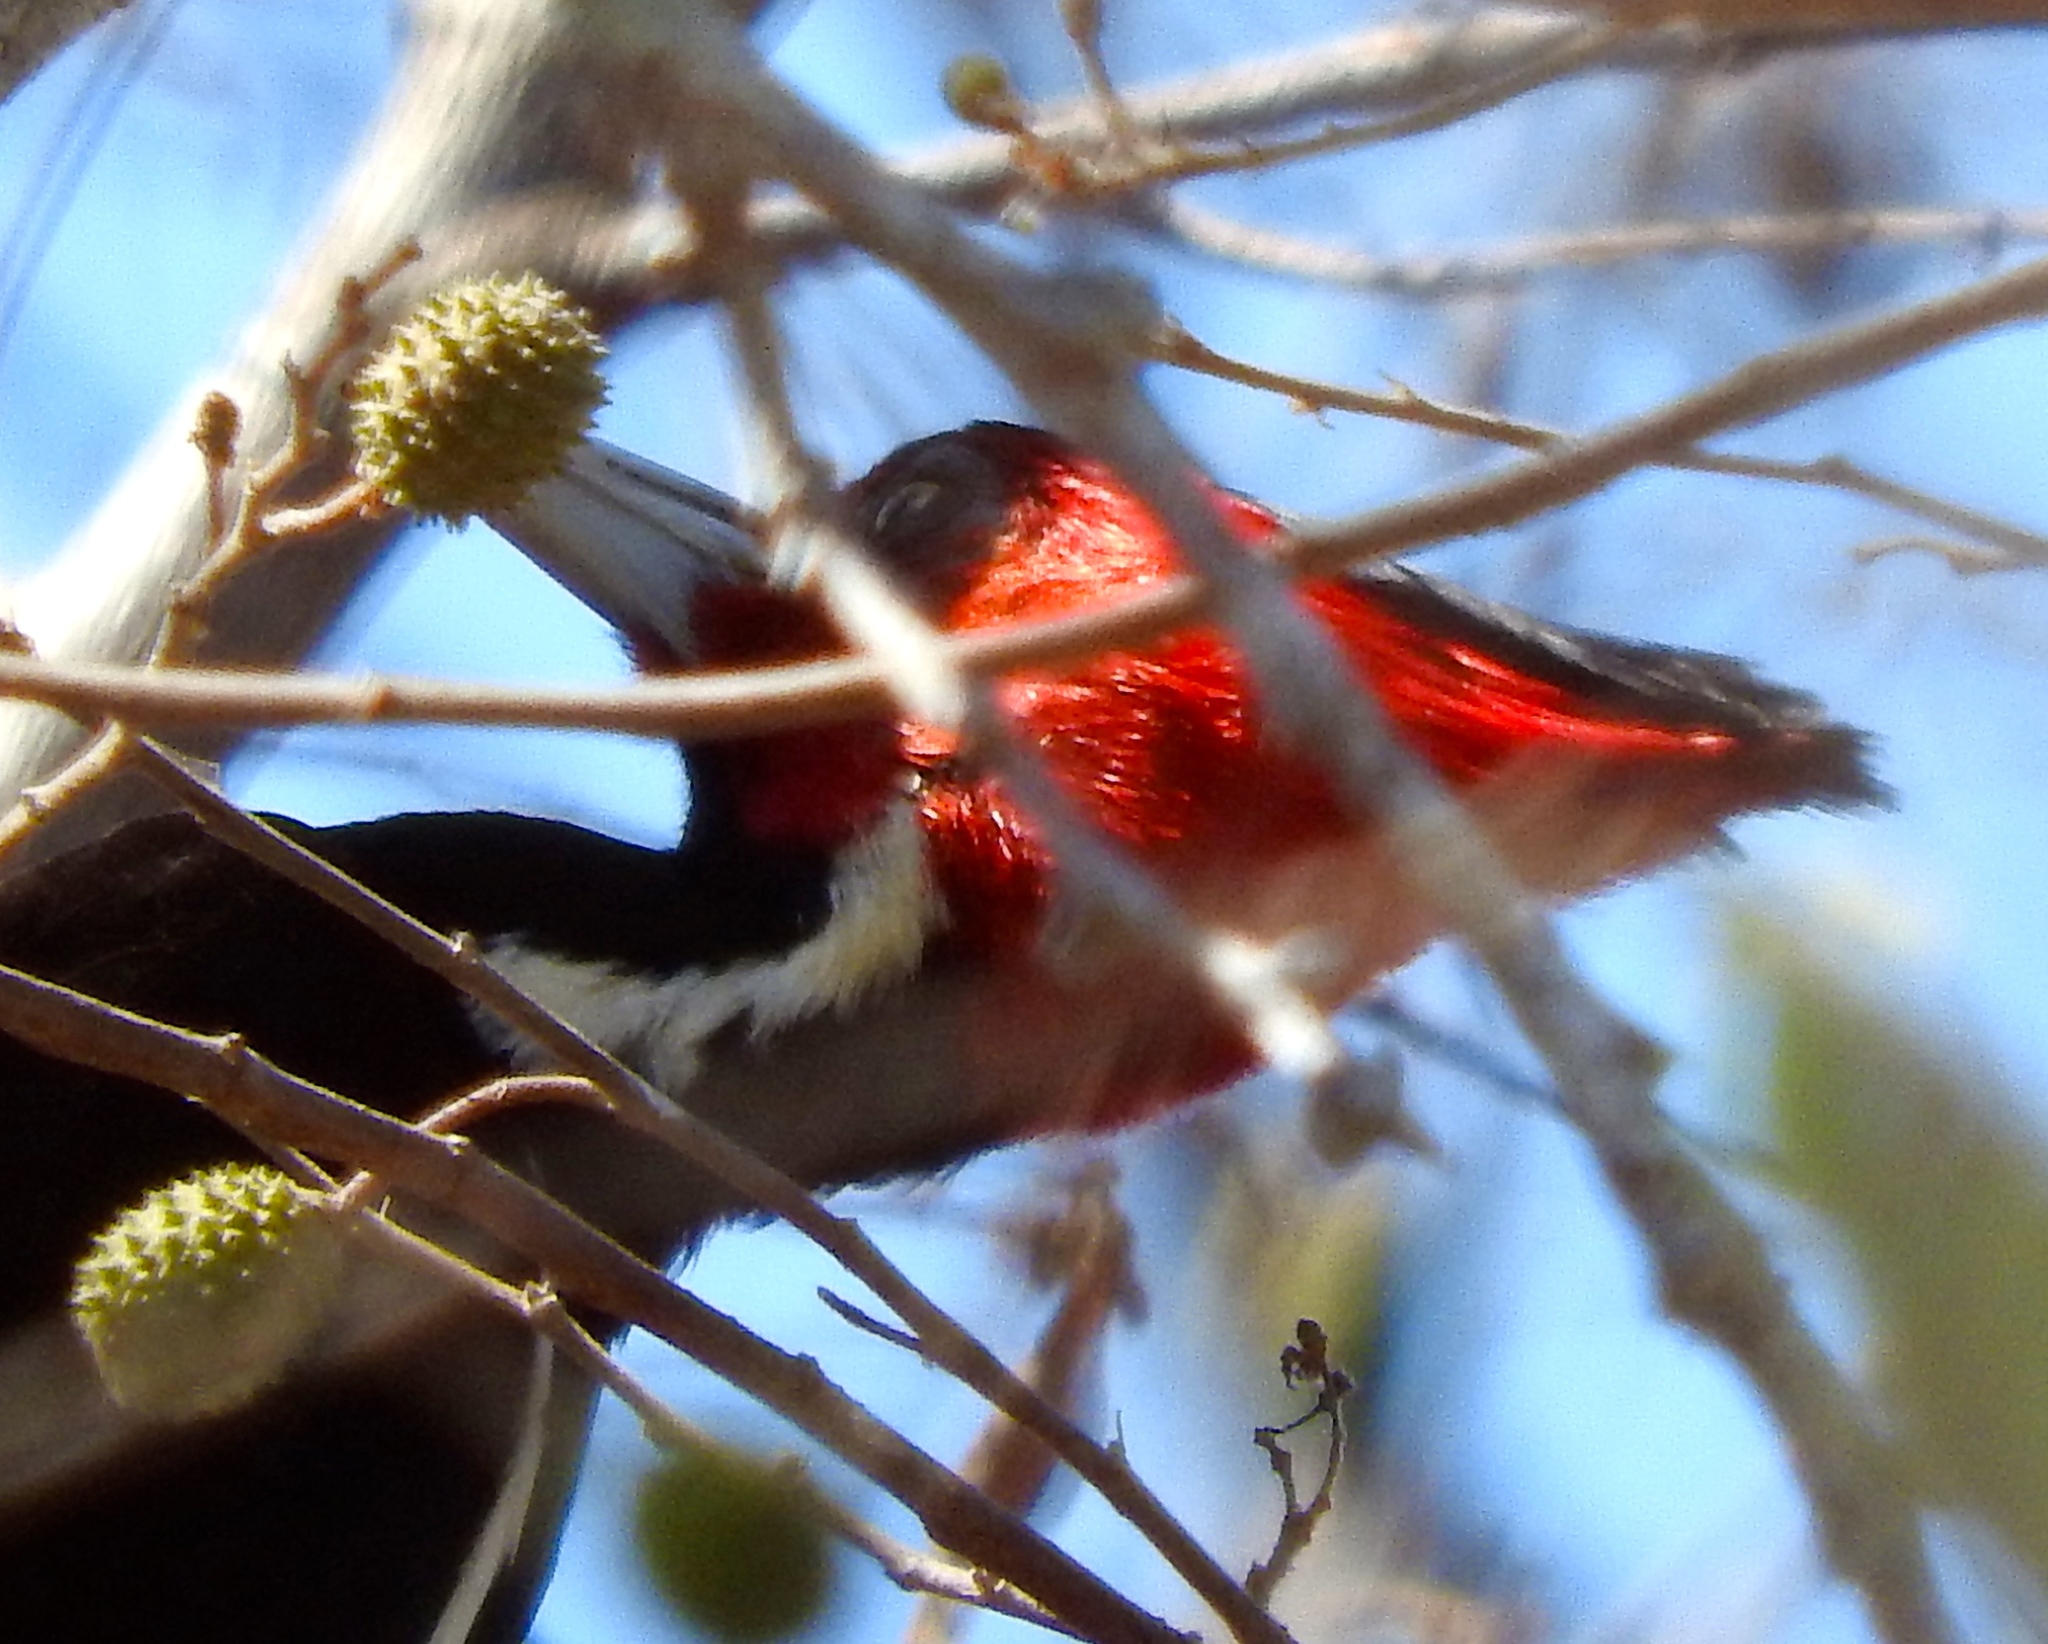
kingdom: Animalia
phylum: Chordata
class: Aves
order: Piciformes
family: Picidae
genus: Campephilus
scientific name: Campephilus guatemalensis
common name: Pale-billed woodpecker
